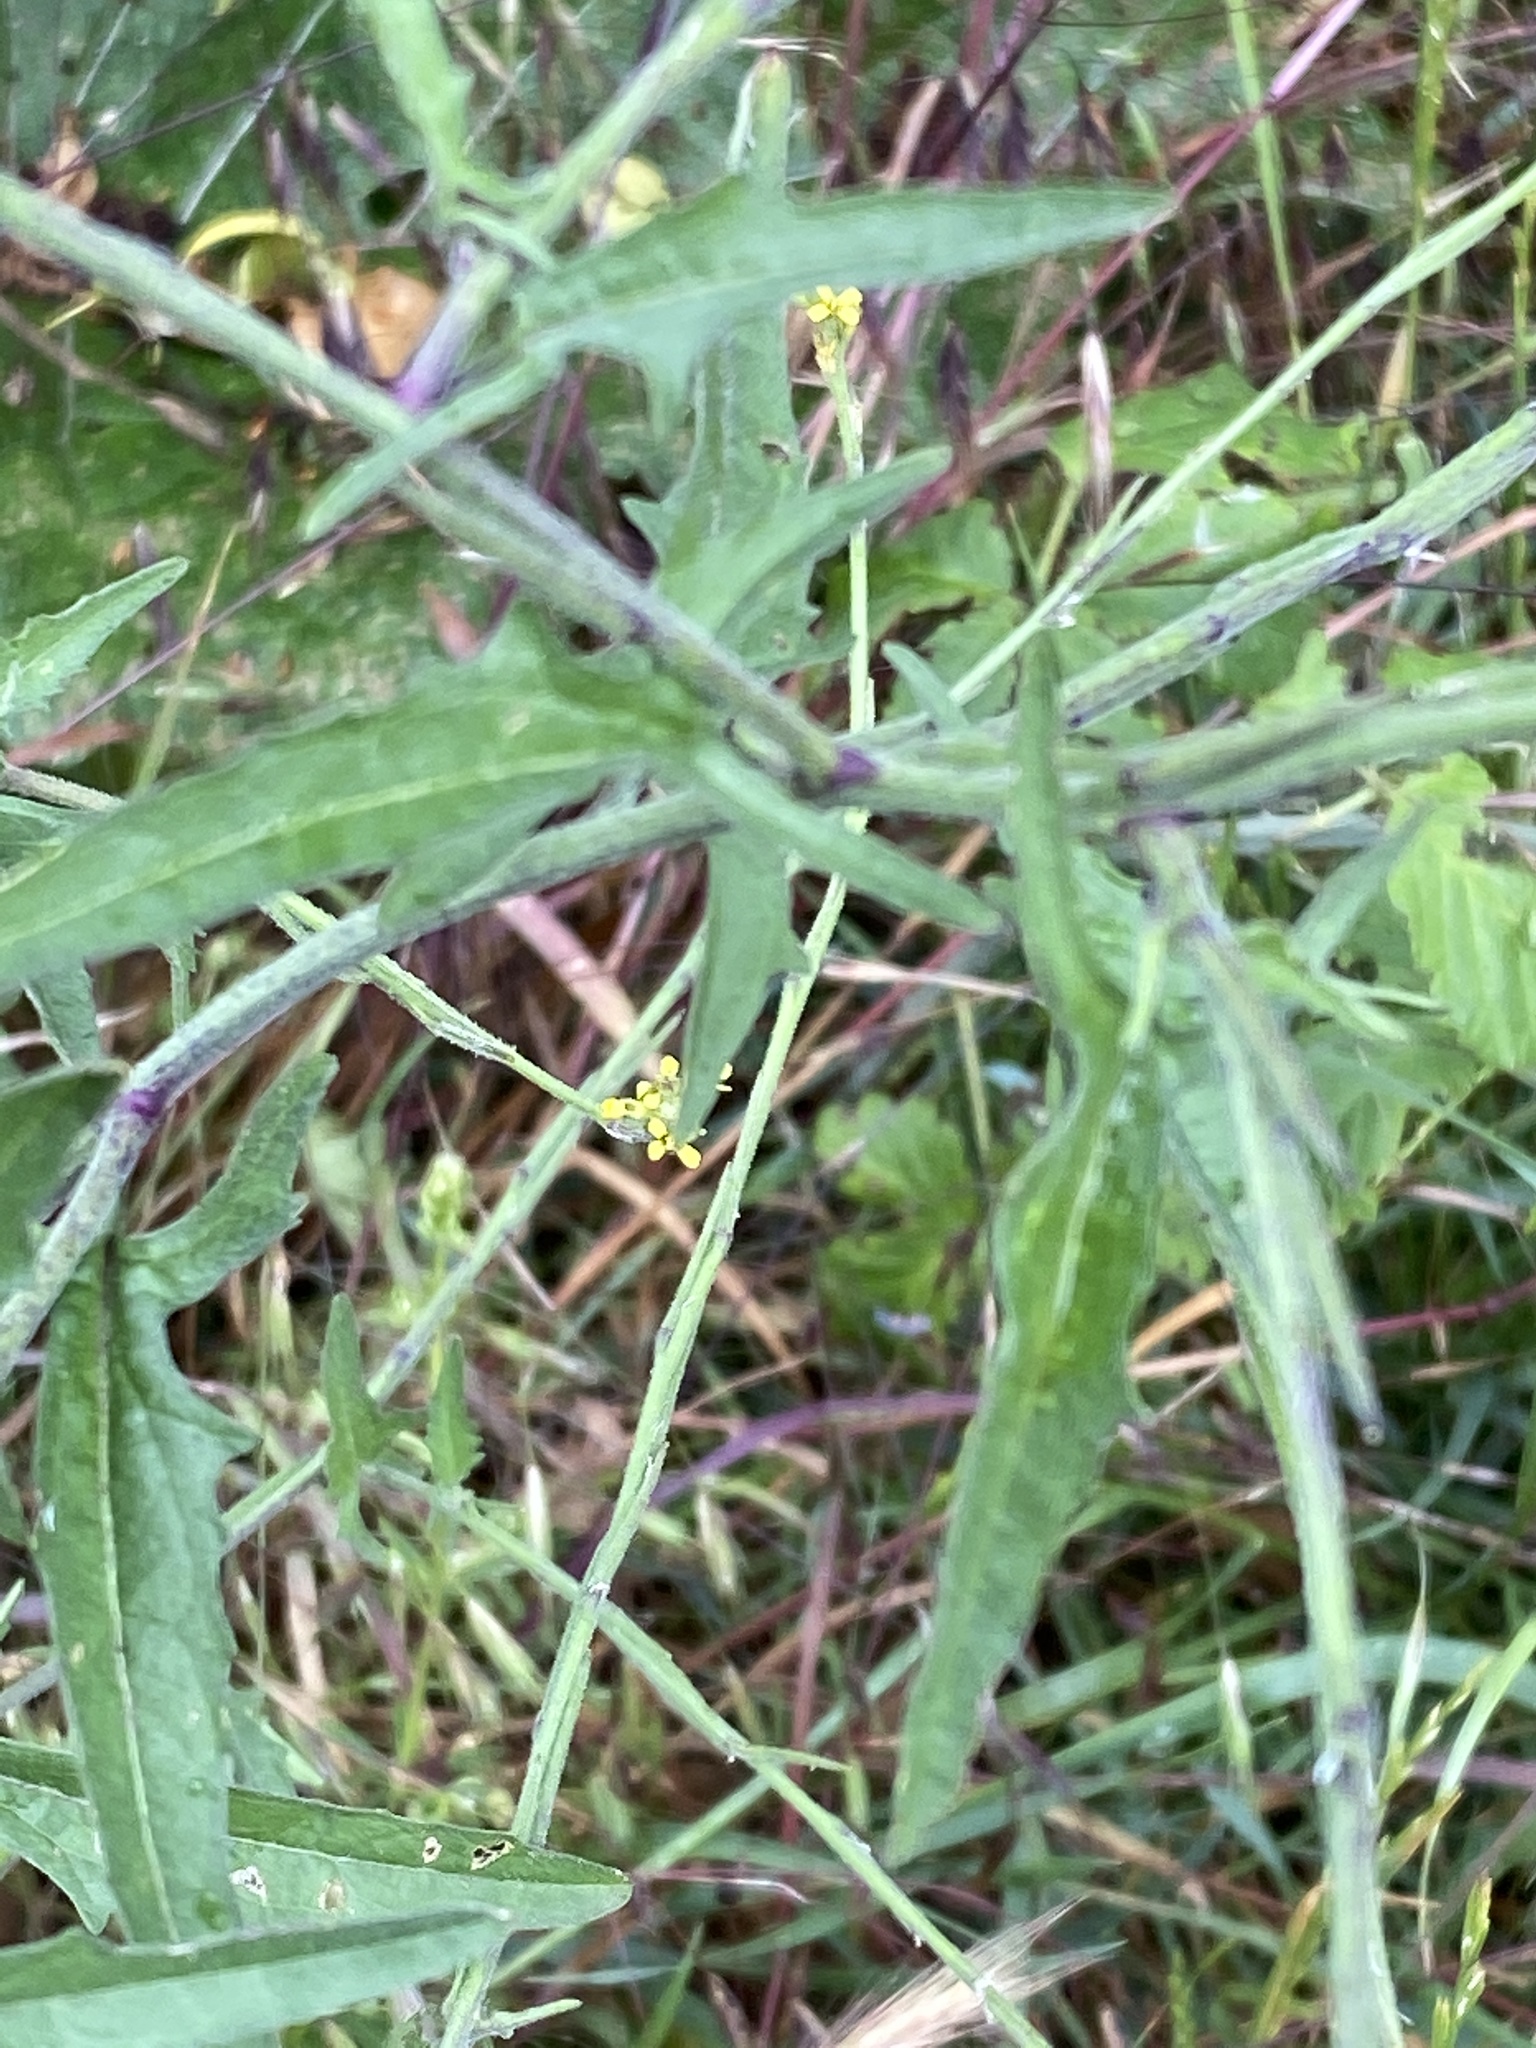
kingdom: Plantae
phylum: Tracheophyta
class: Magnoliopsida
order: Brassicales
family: Brassicaceae
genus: Sisymbrium
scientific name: Sisymbrium officinale
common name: Hedge mustard
